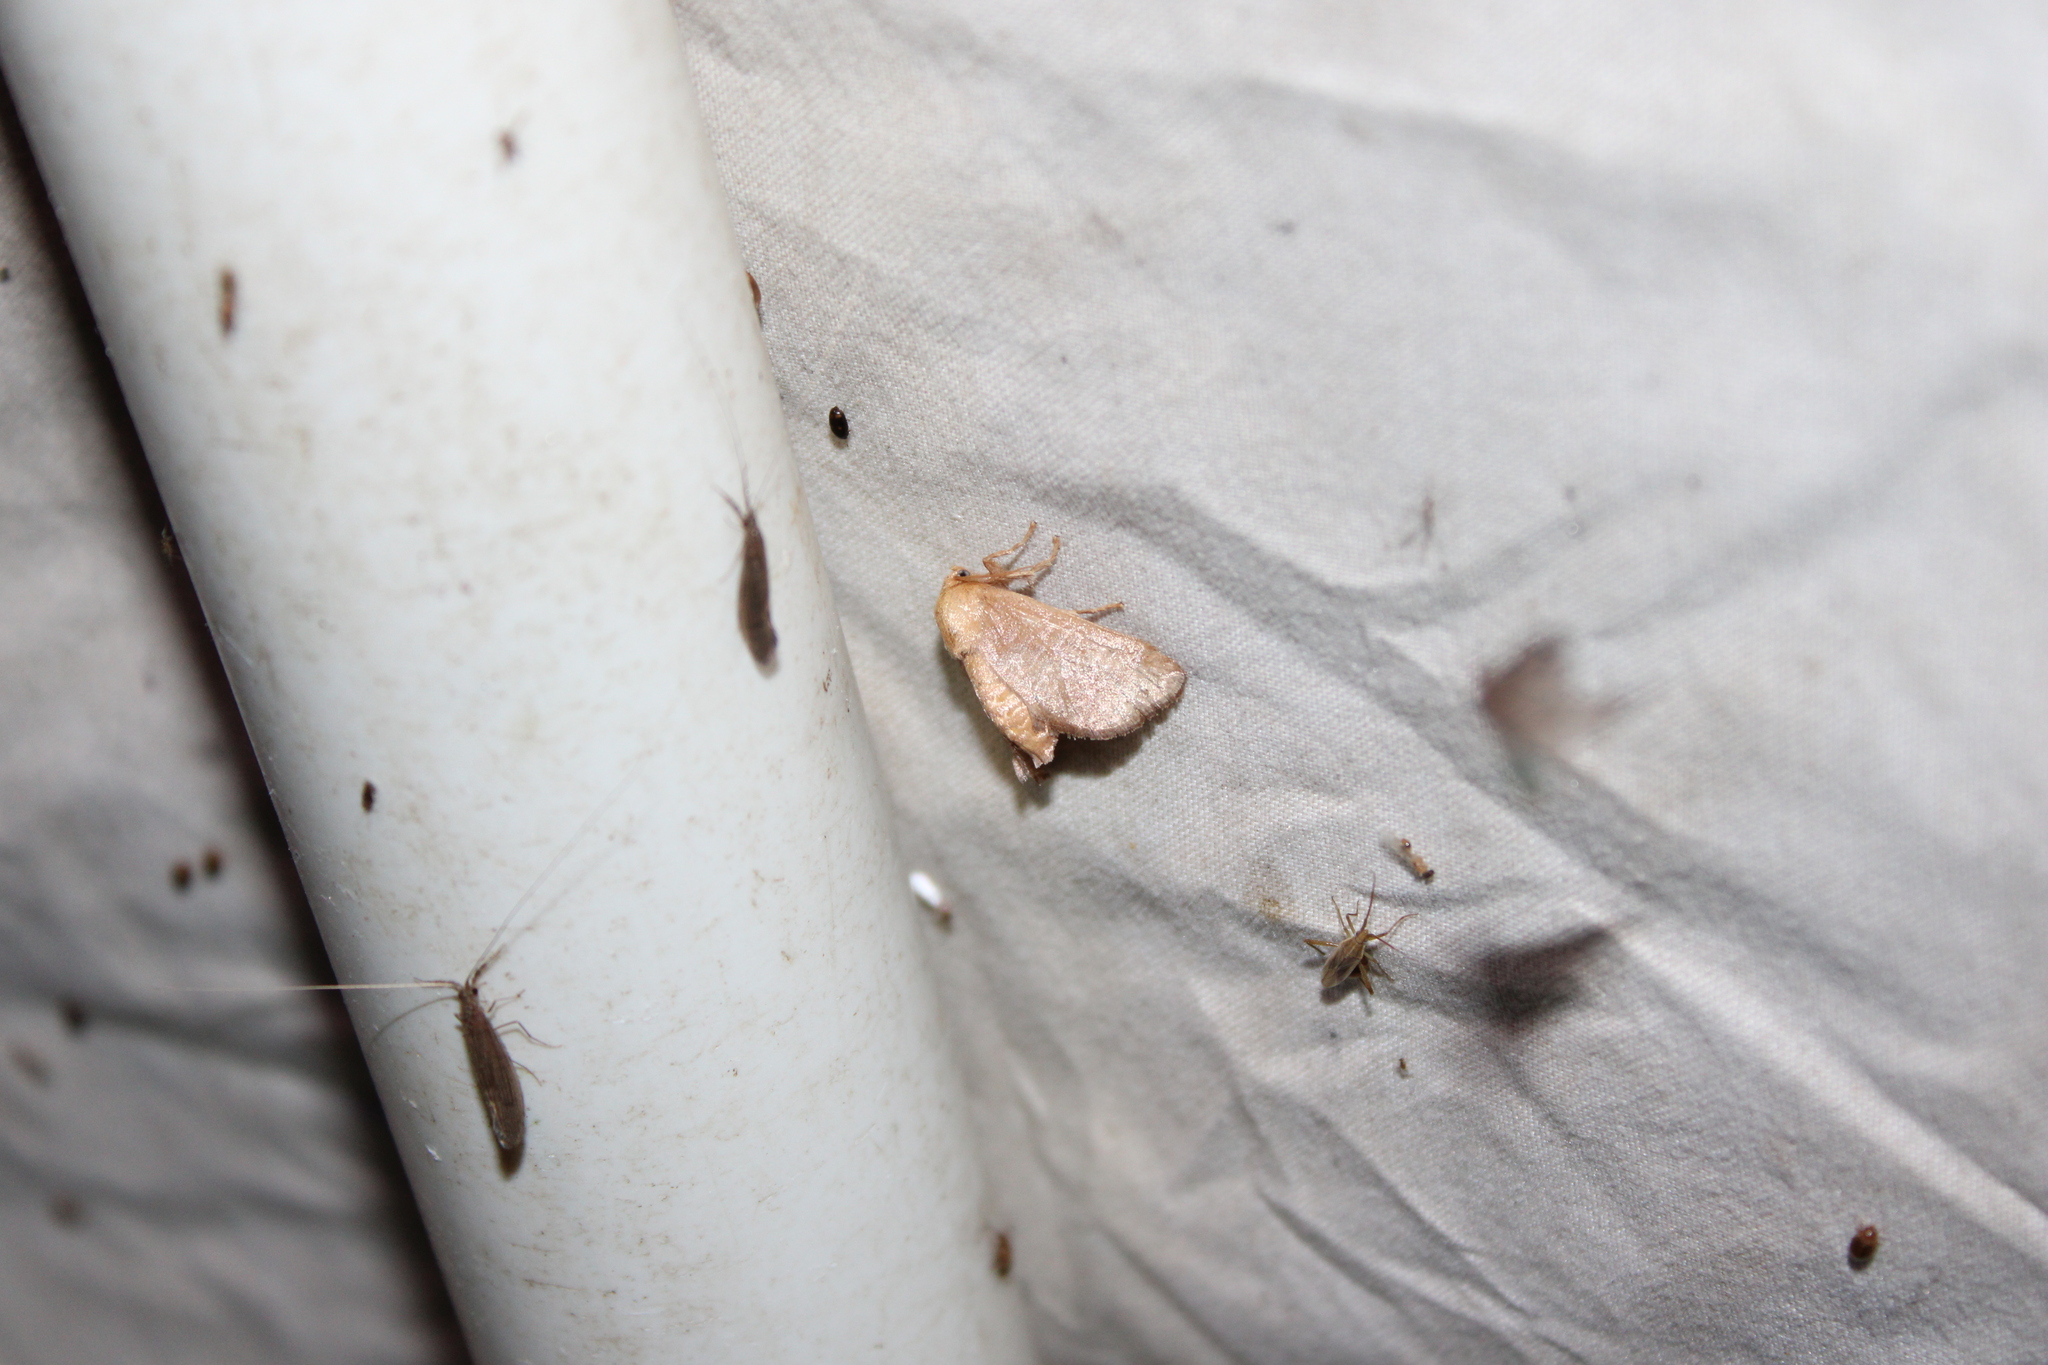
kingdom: Animalia
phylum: Arthropoda
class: Insecta
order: Lepidoptera
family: Limacodidae
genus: Isa
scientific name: Isa textula
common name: Crowned slug moth
